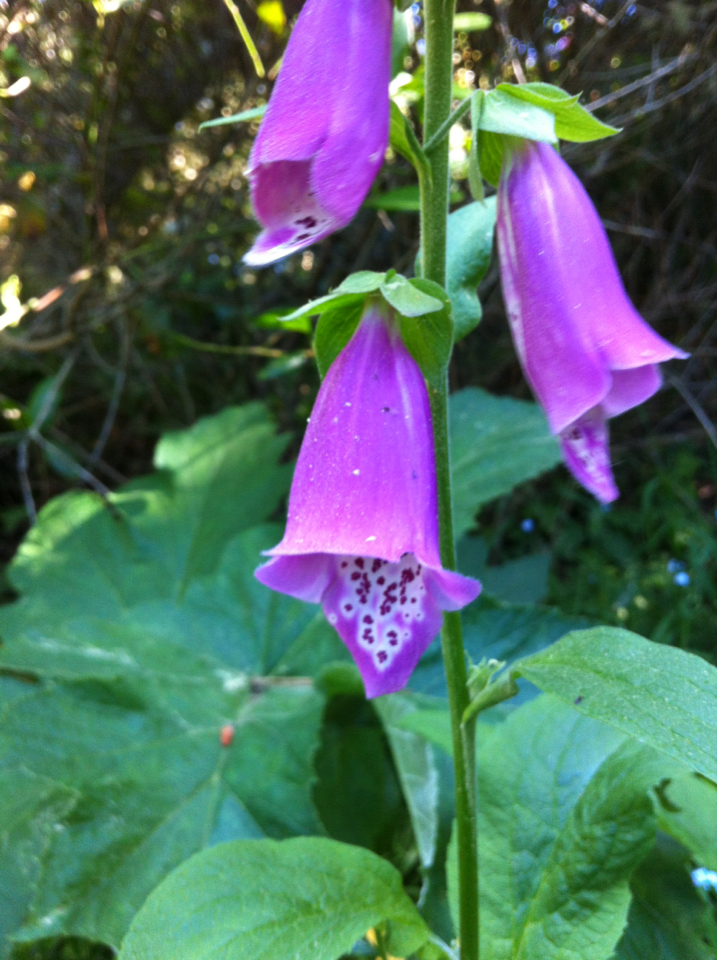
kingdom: Plantae
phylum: Tracheophyta
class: Magnoliopsida
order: Lamiales
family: Plantaginaceae
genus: Digitalis
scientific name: Digitalis purpurea
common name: Foxglove
